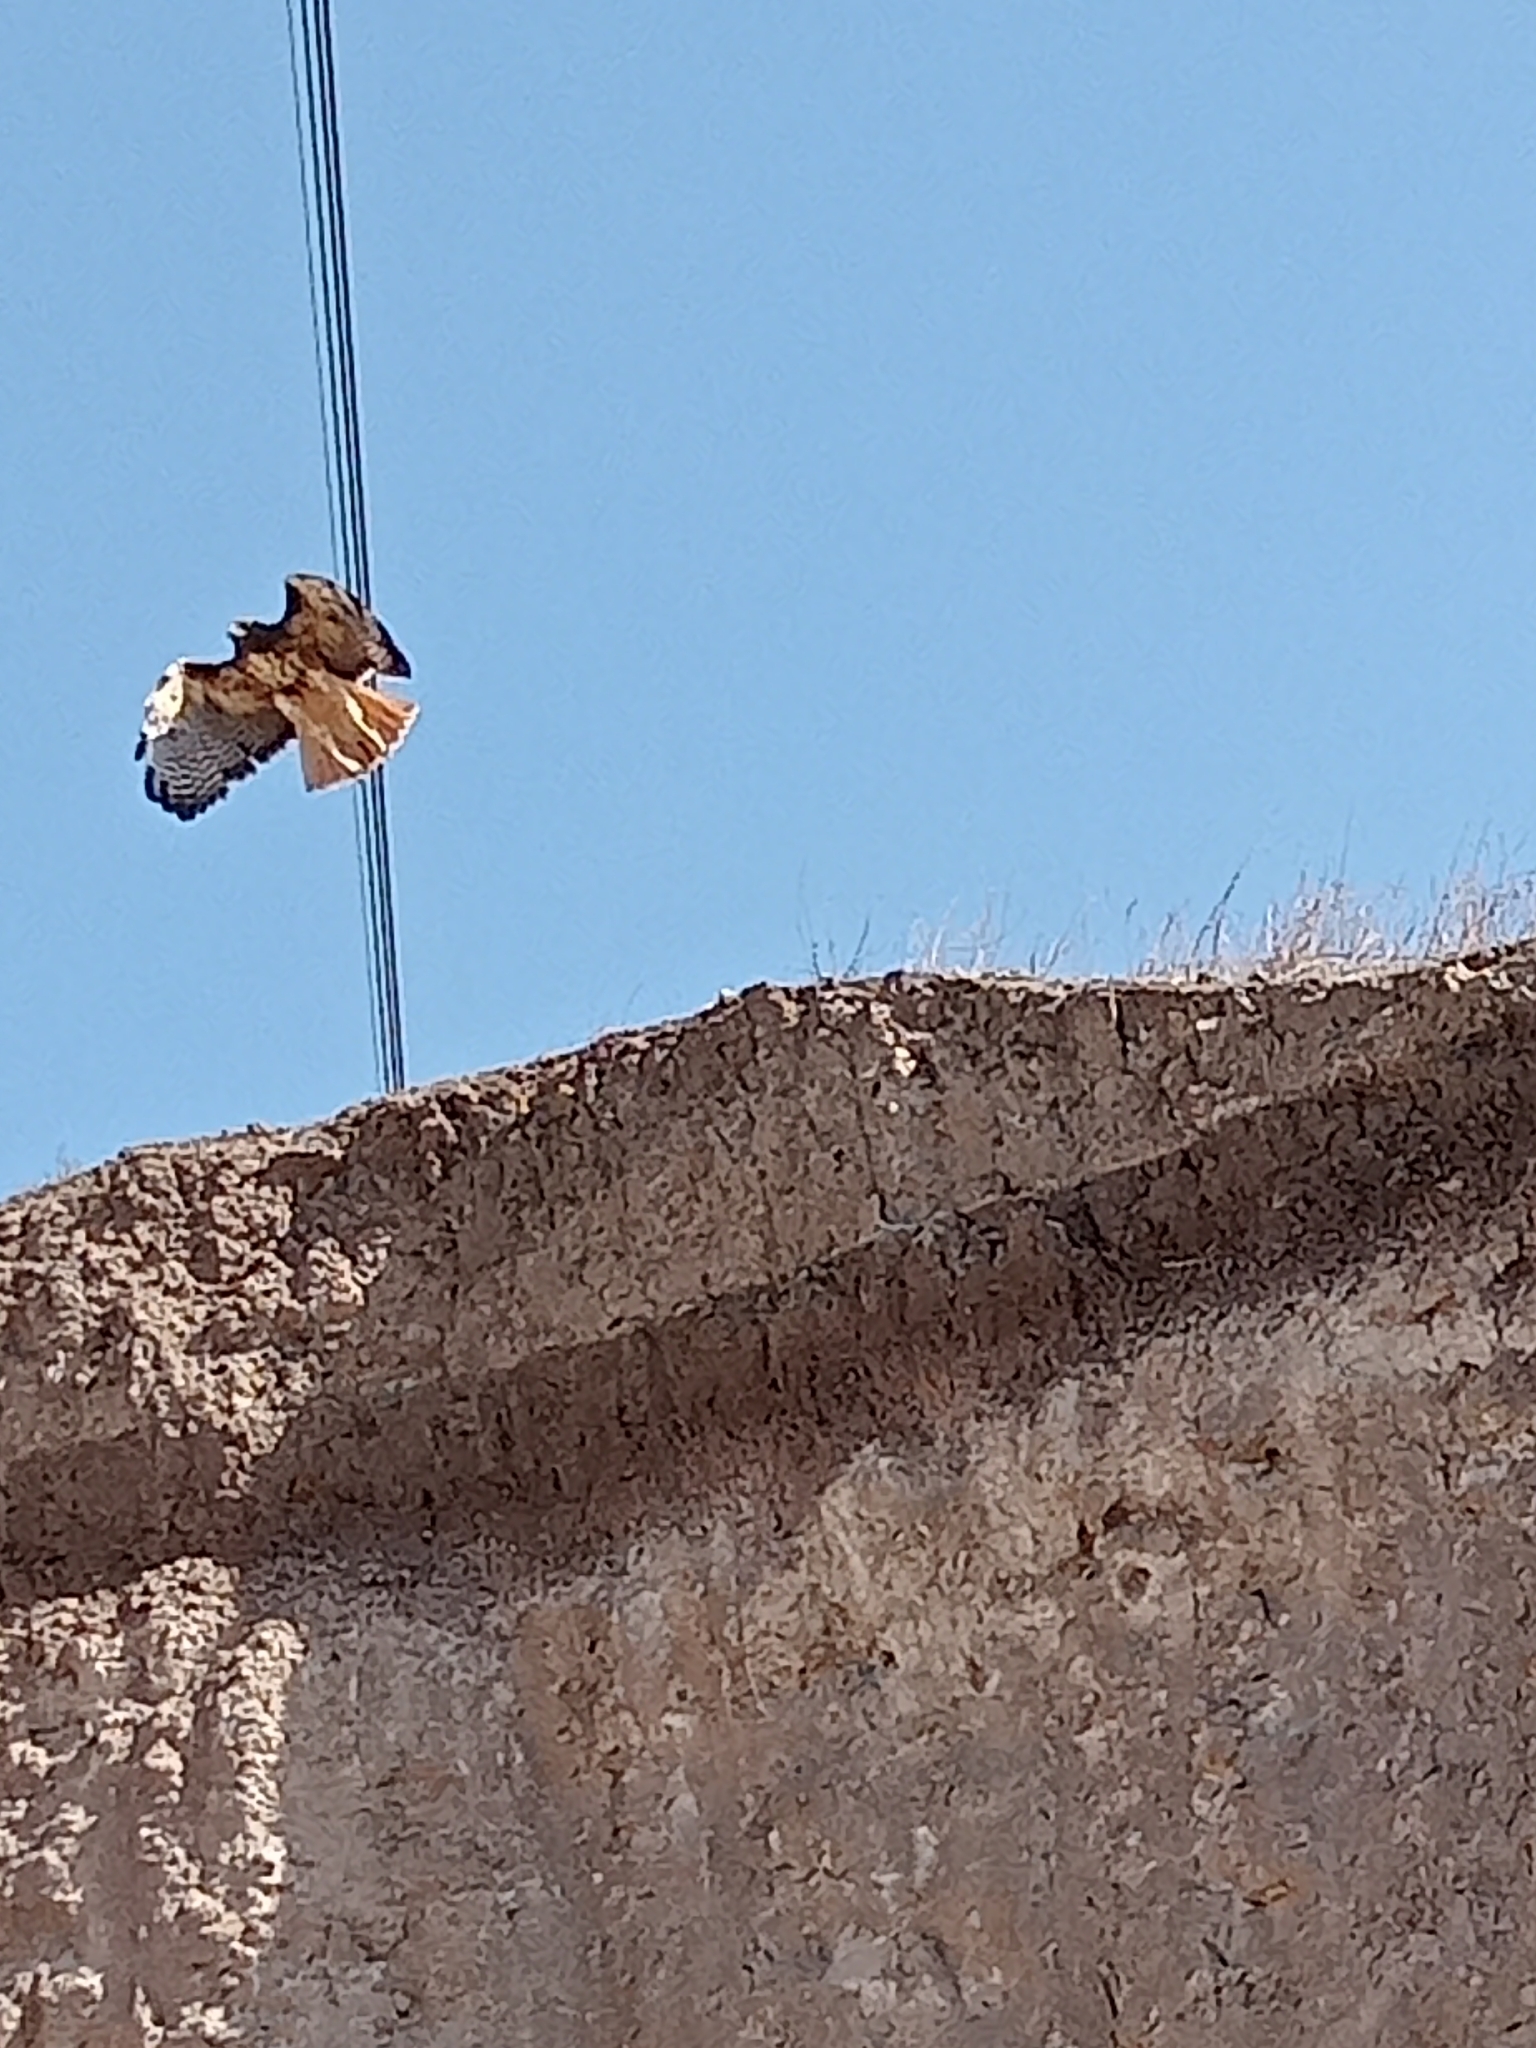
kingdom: Animalia
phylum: Chordata
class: Aves
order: Accipitriformes
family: Accipitridae
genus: Buteo
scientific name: Buteo jamaicensis
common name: Red-tailed hawk
